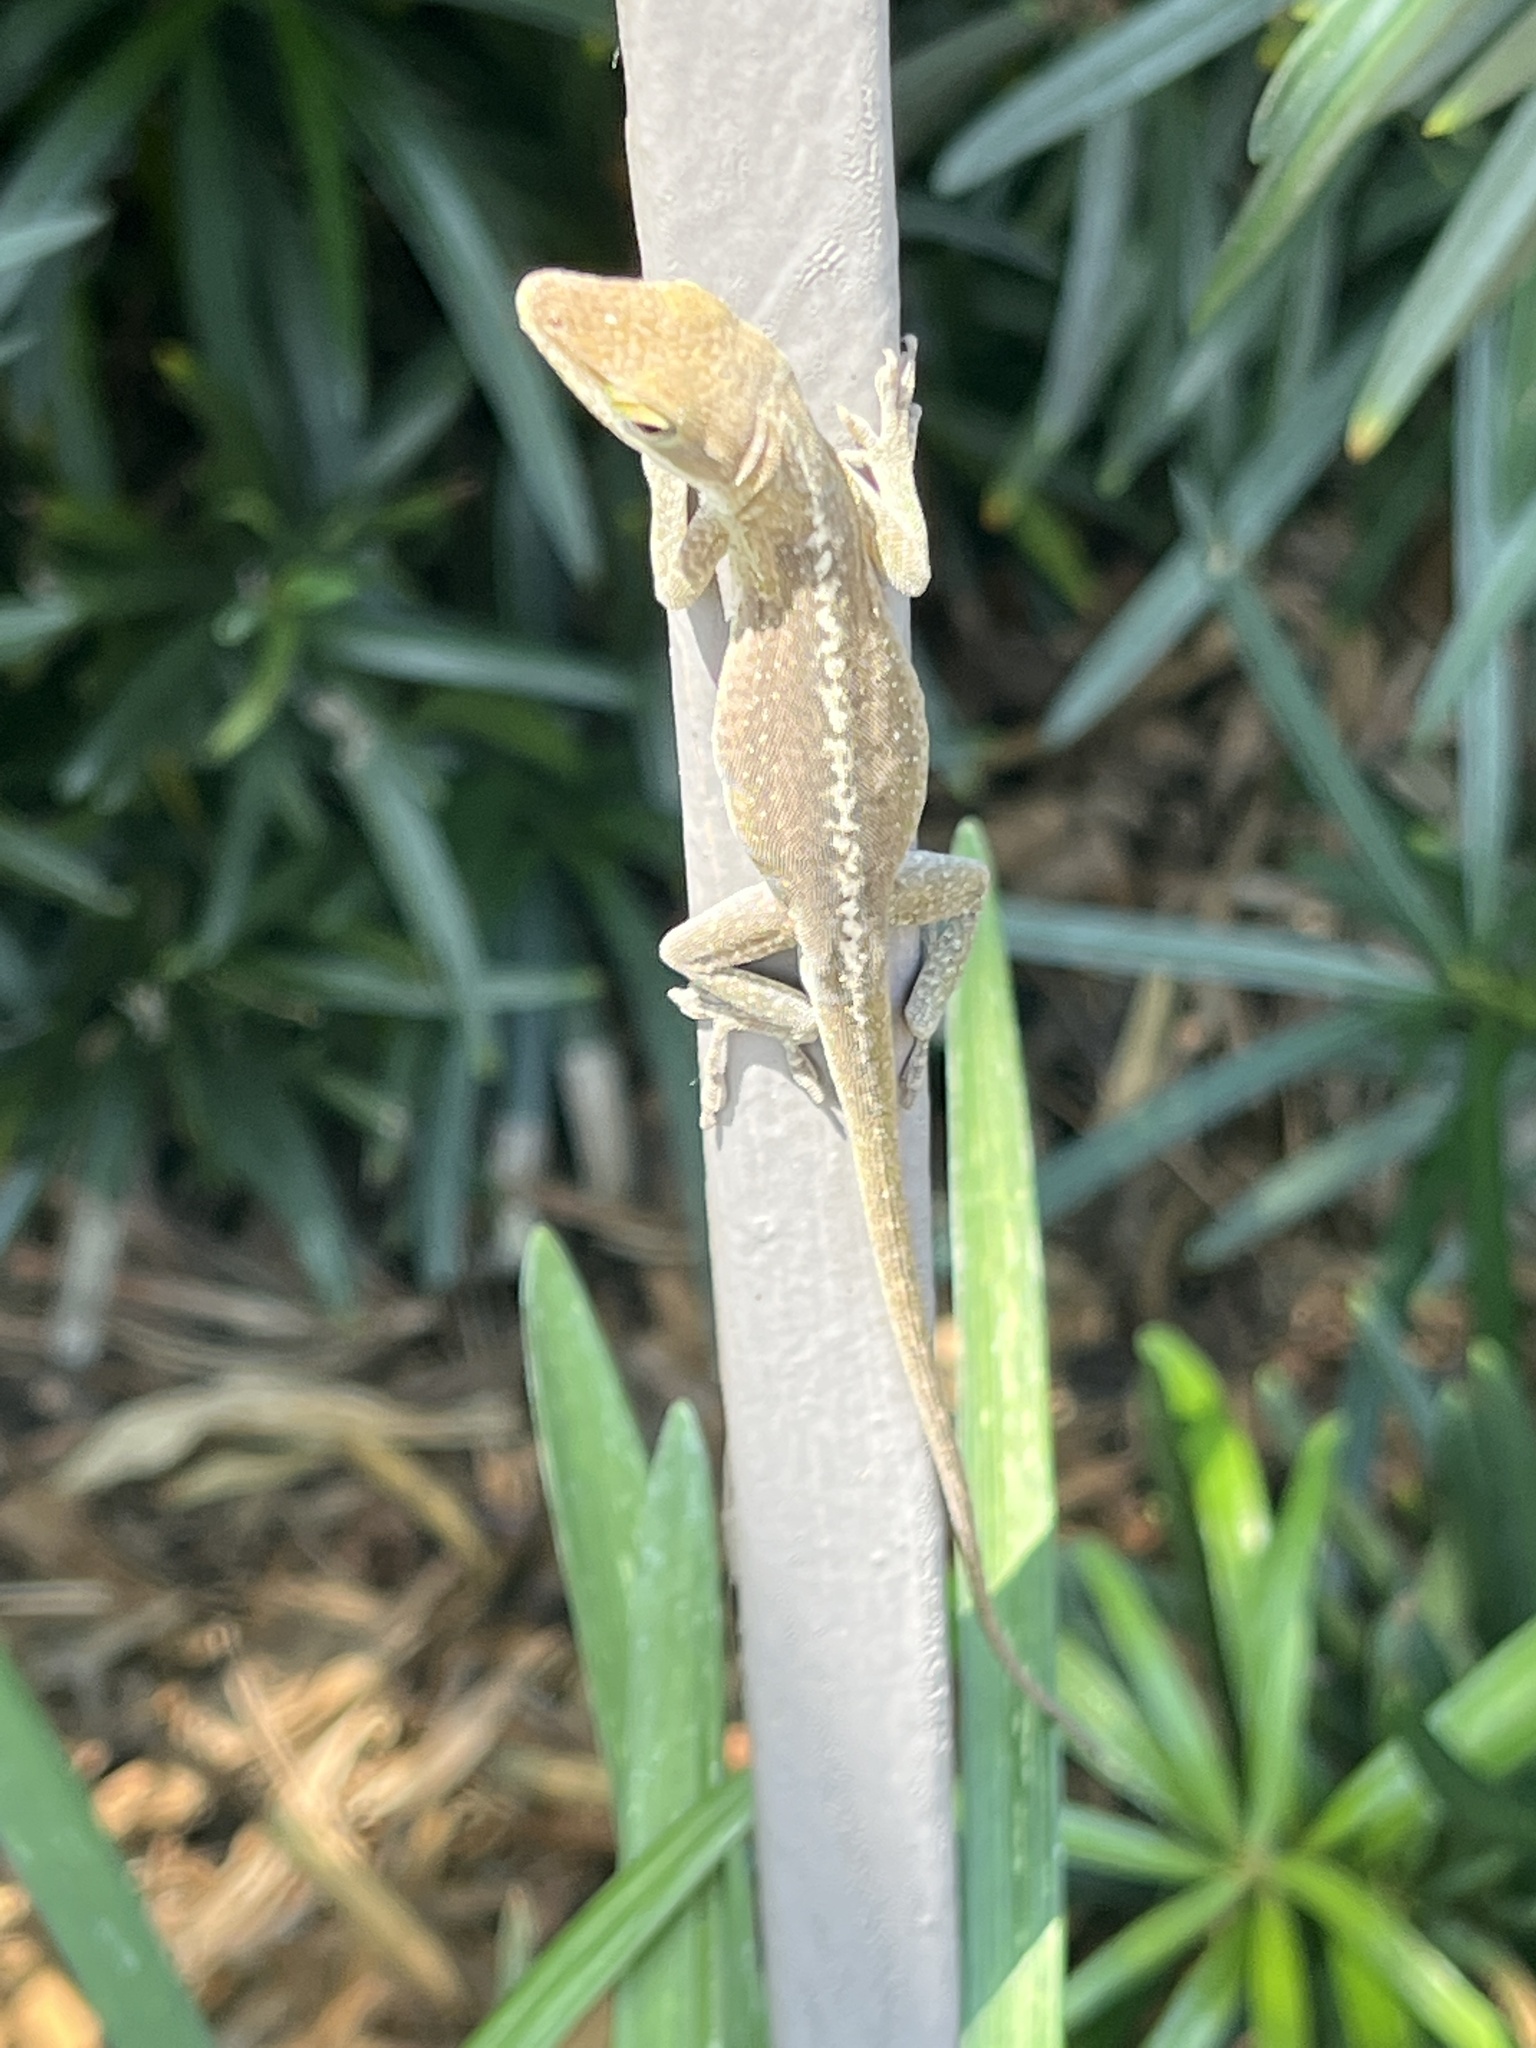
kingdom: Animalia
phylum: Chordata
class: Squamata
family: Dactyloidae
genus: Anolis
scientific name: Anolis carolinensis
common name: Green anole
